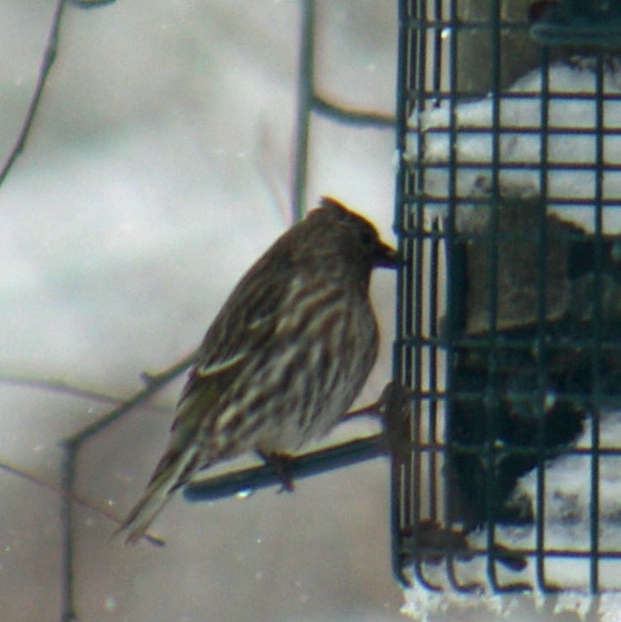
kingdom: Animalia
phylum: Chordata
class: Aves
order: Passeriformes
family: Fringillidae
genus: Spinus
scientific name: Spinus pinus
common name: Pine siskin
